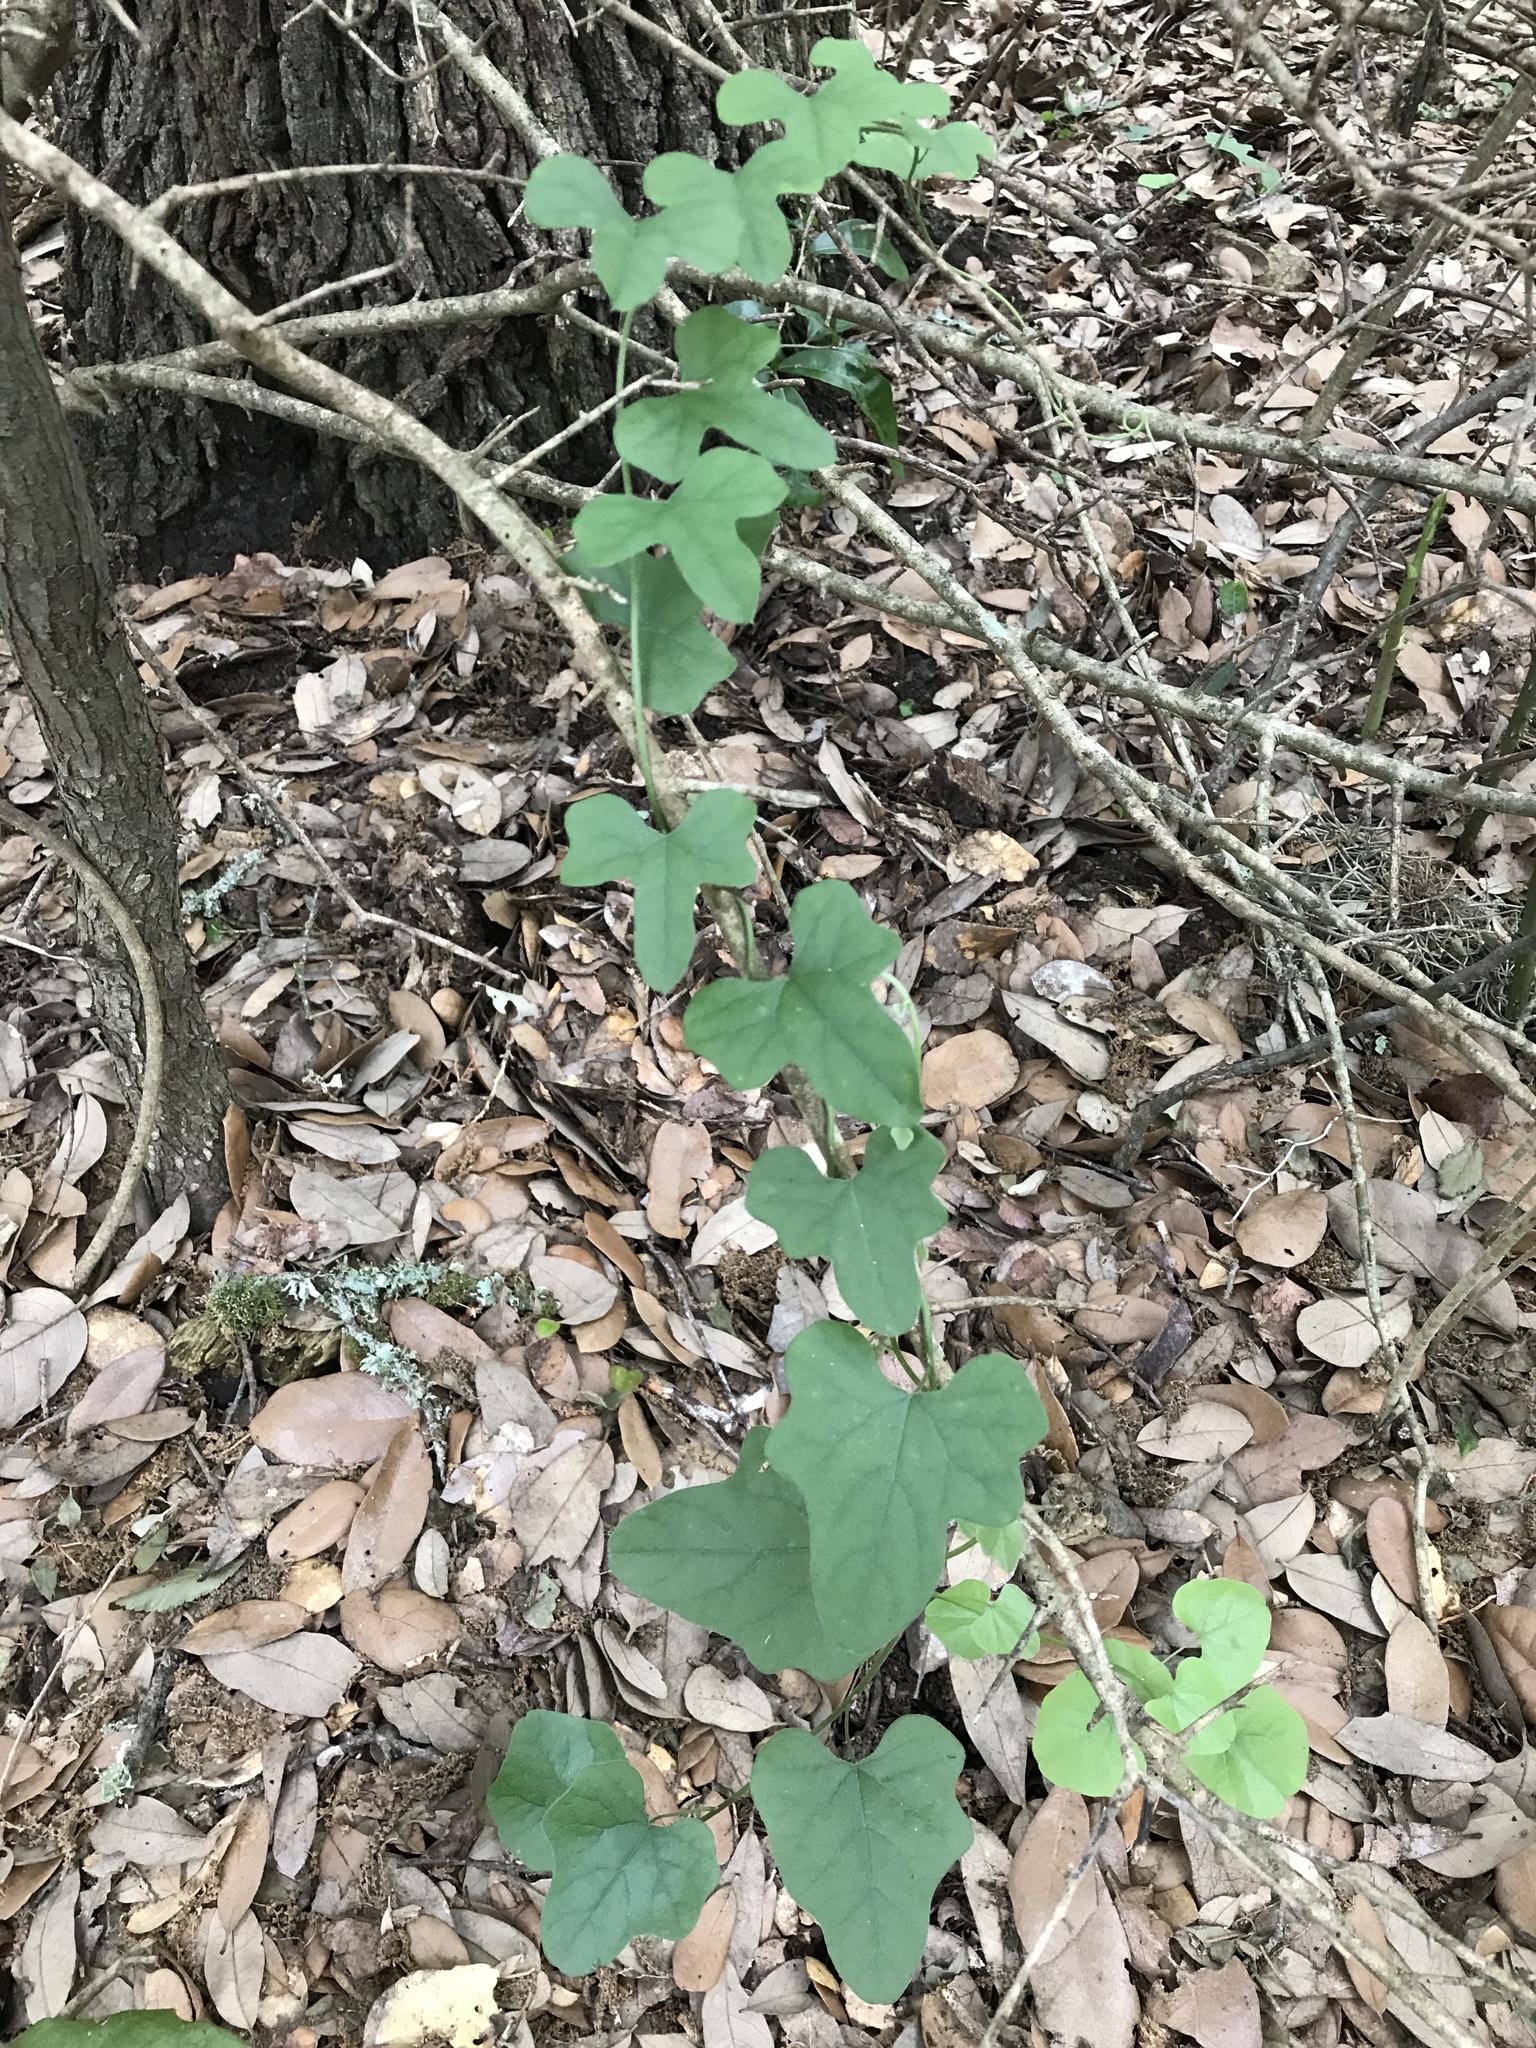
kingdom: Plantae
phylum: Tracheophyta
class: Magnoliopsida
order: Ranunculales
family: Menispermaceae
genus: Cocculus
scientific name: Cocculus carolinus
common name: Carolina moonseed
